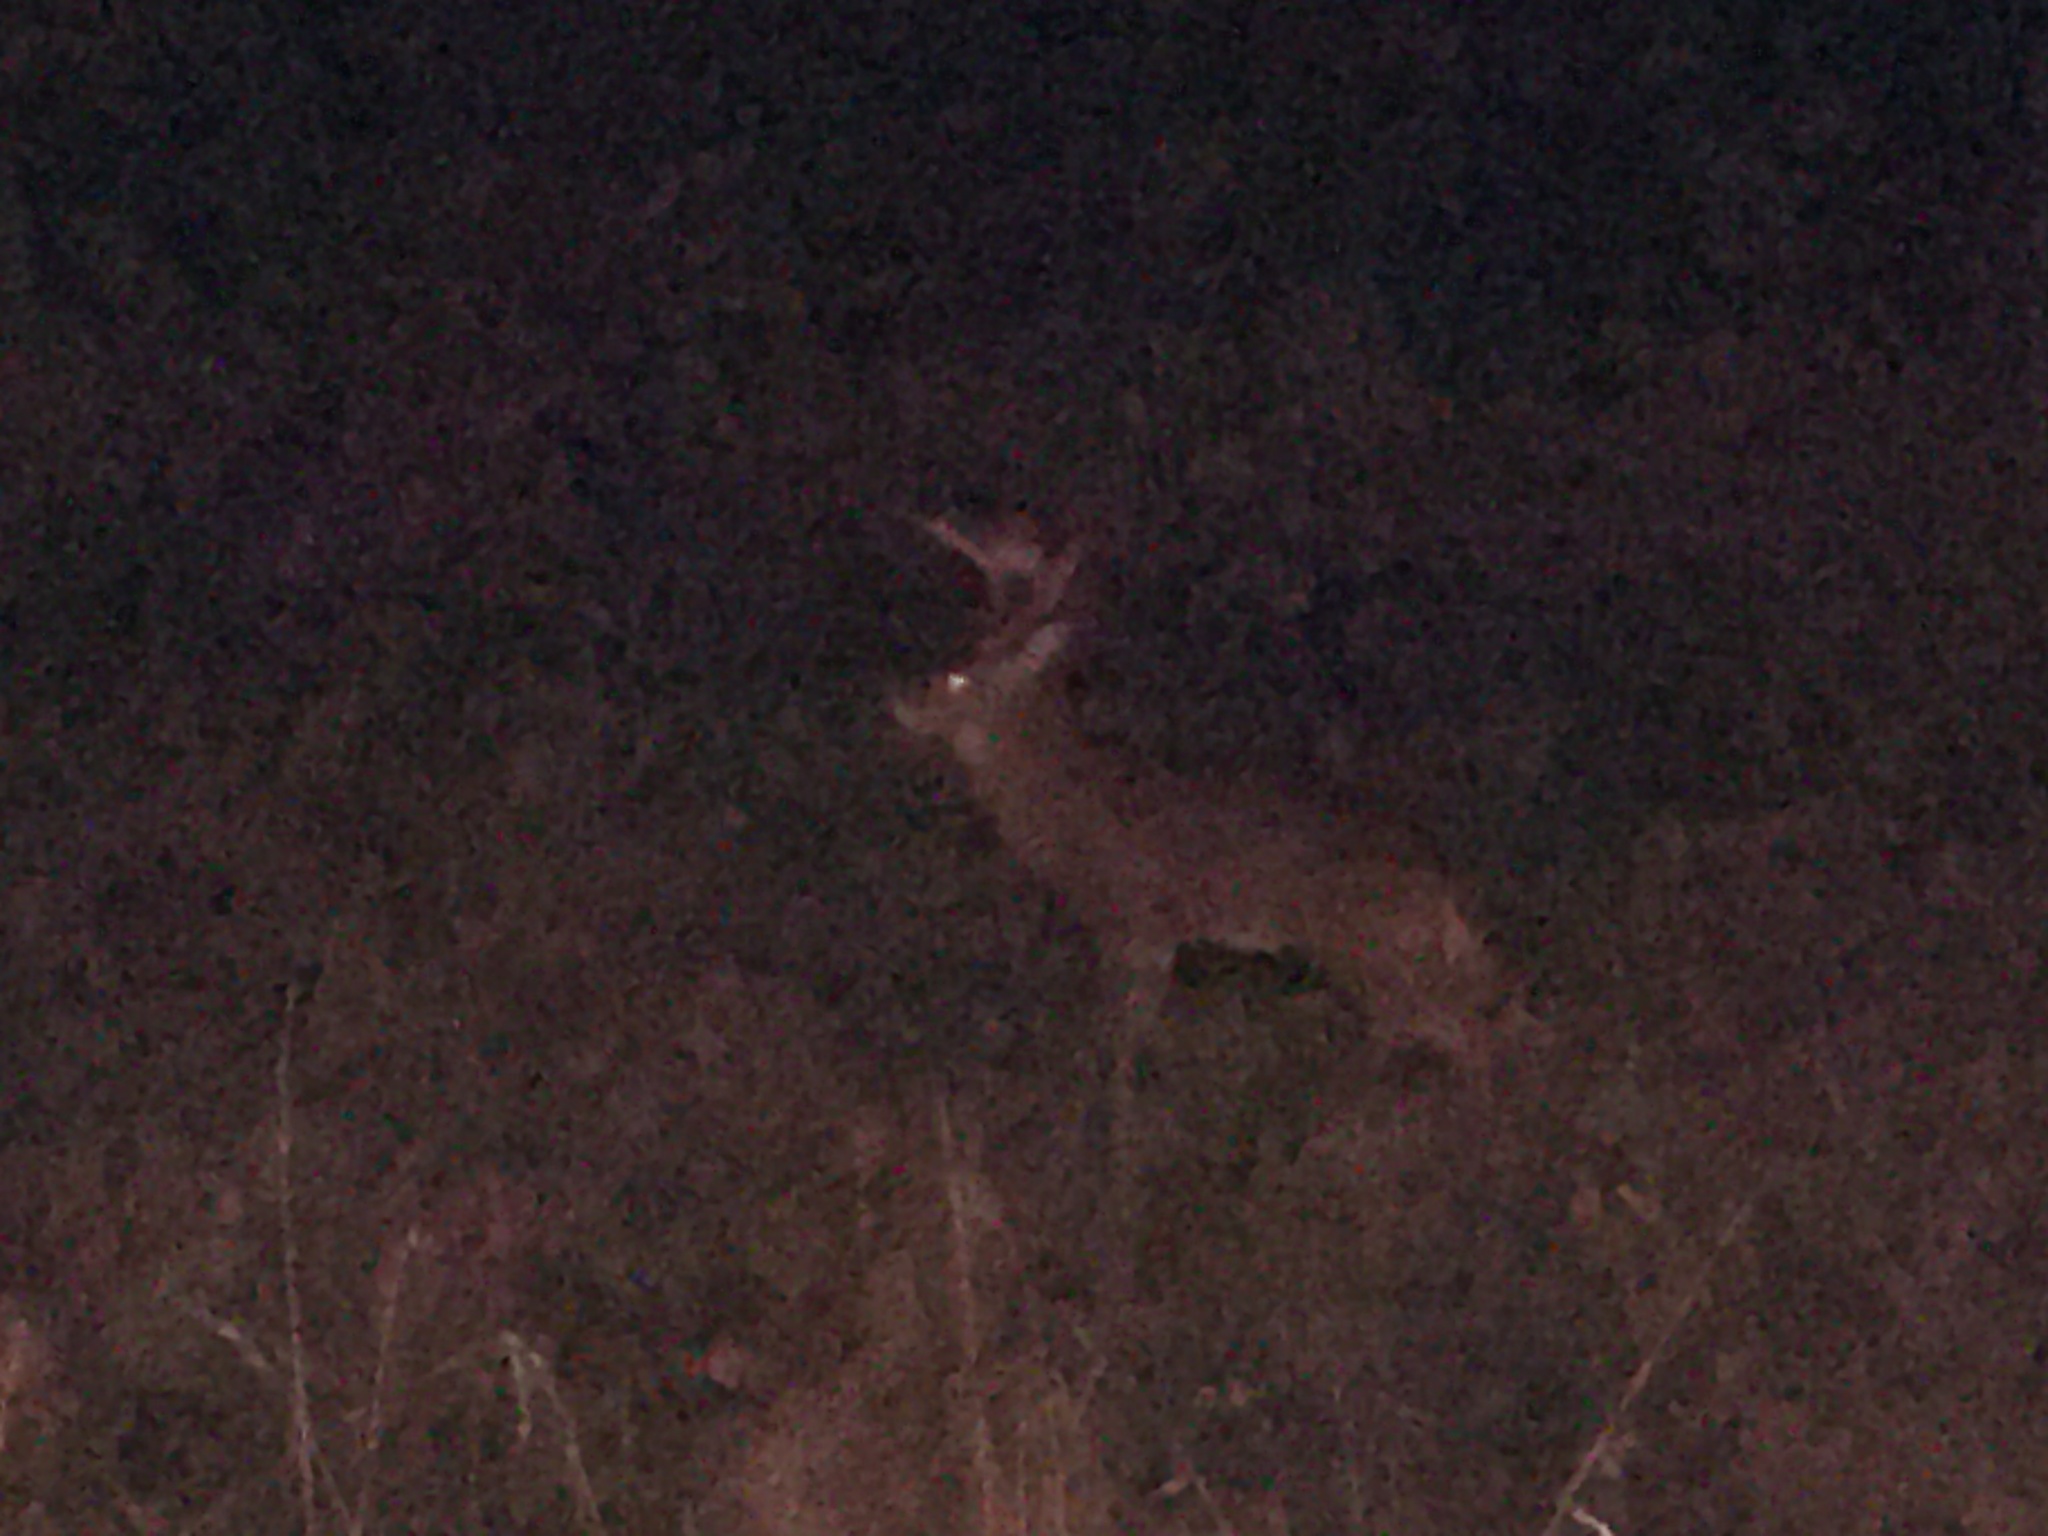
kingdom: Animalia
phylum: Chordata
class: Mammalia
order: Artiodactyla
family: Cervidae
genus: Odocoileus
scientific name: Odocoileus virginianus
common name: White-tailed deer
